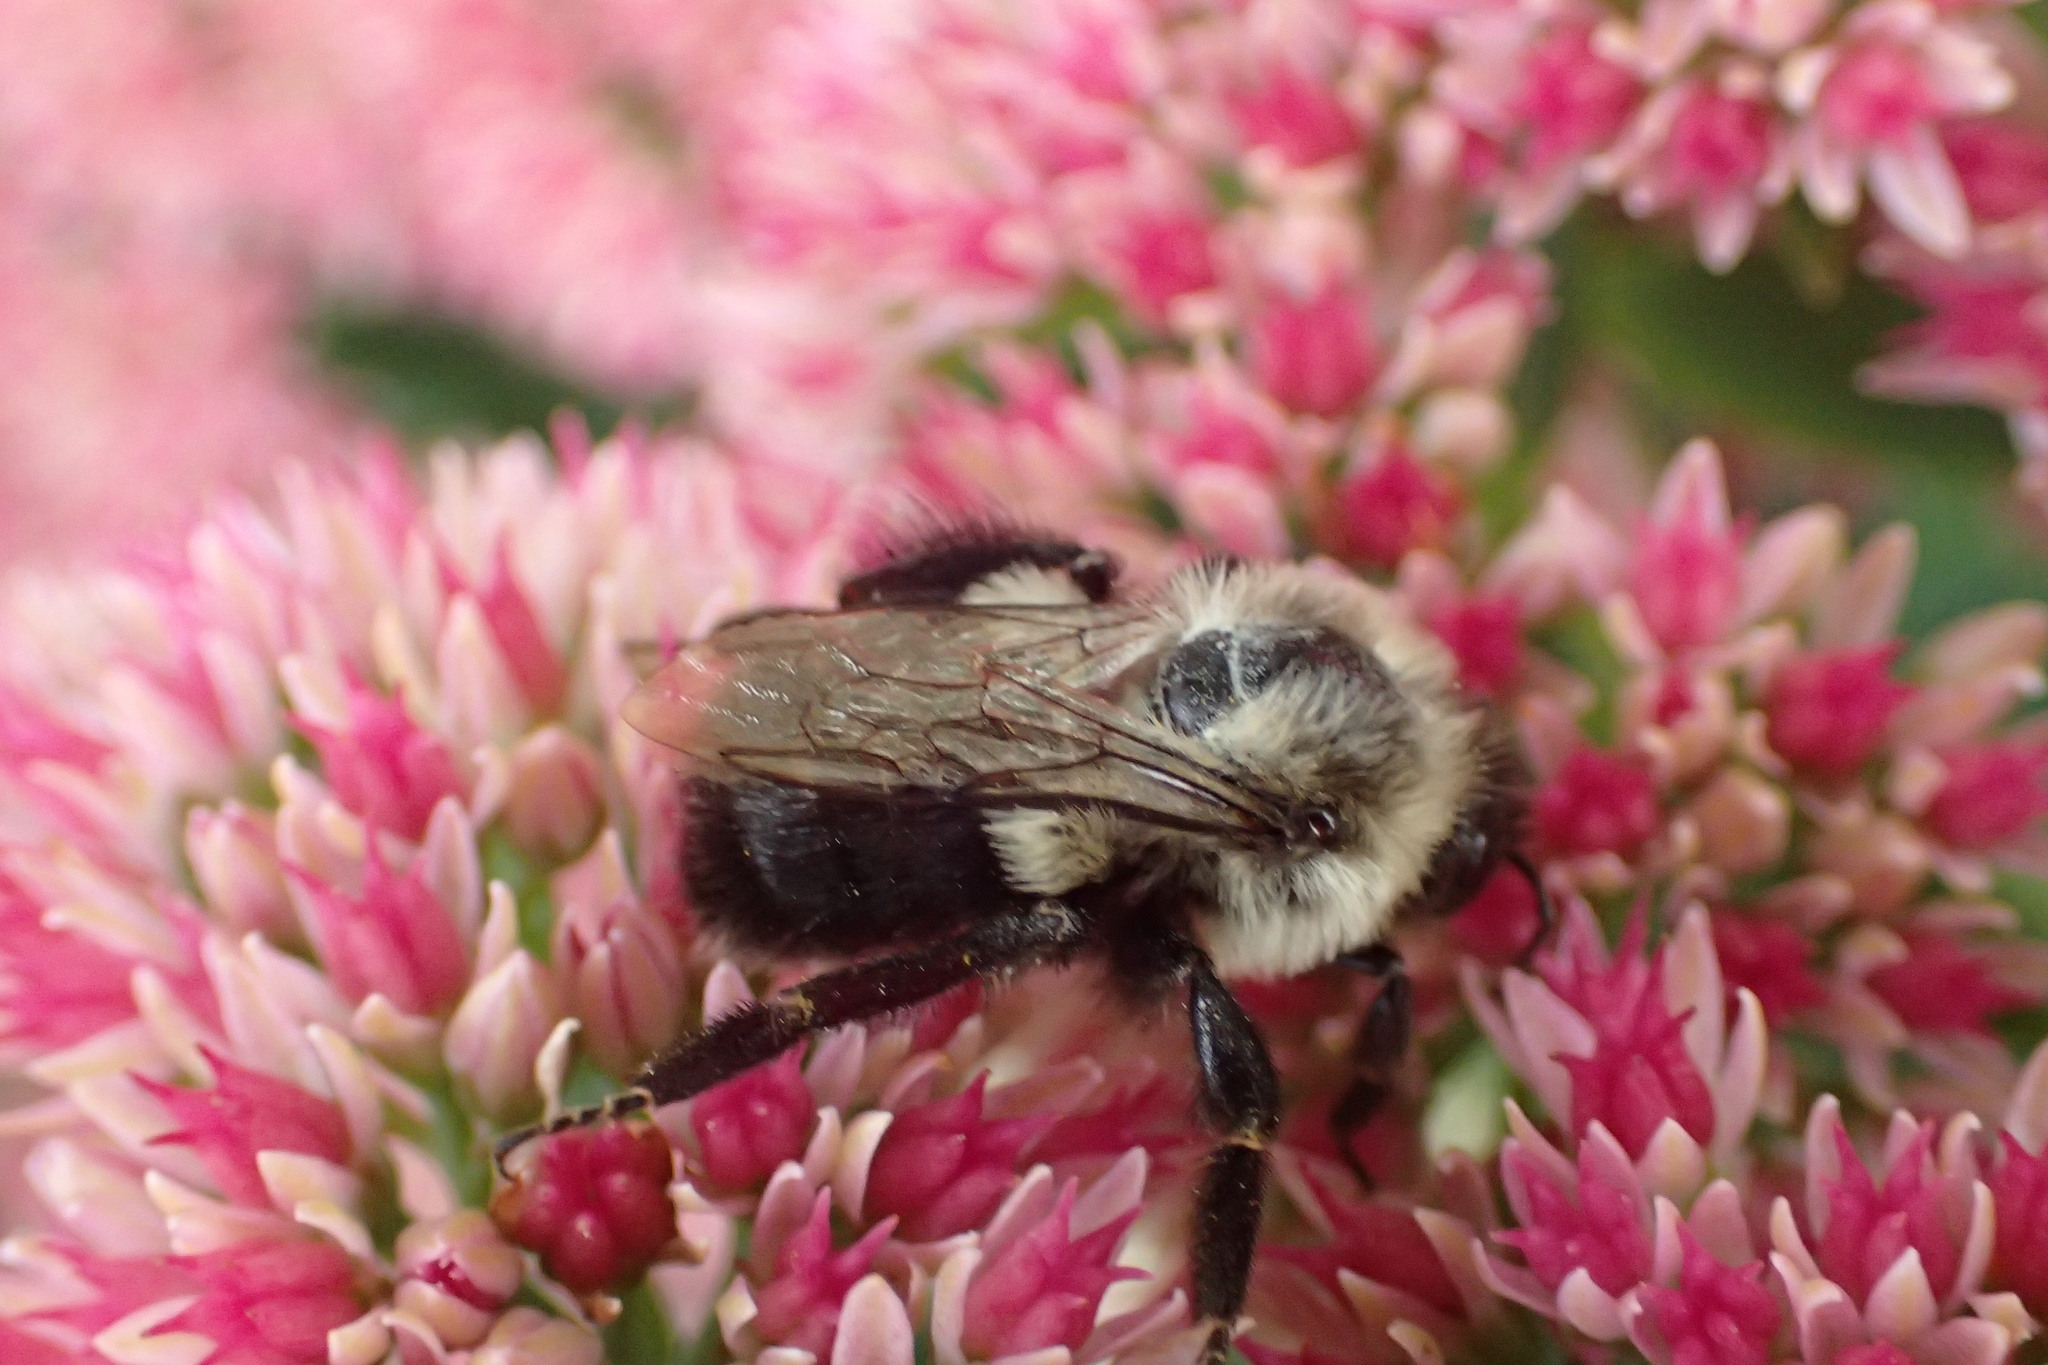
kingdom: Animalia
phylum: Arthropoda
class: Insecta
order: Hymenoptera
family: Apidae
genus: Bombus
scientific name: Bombus impatiens
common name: Common eastern bumble bee
